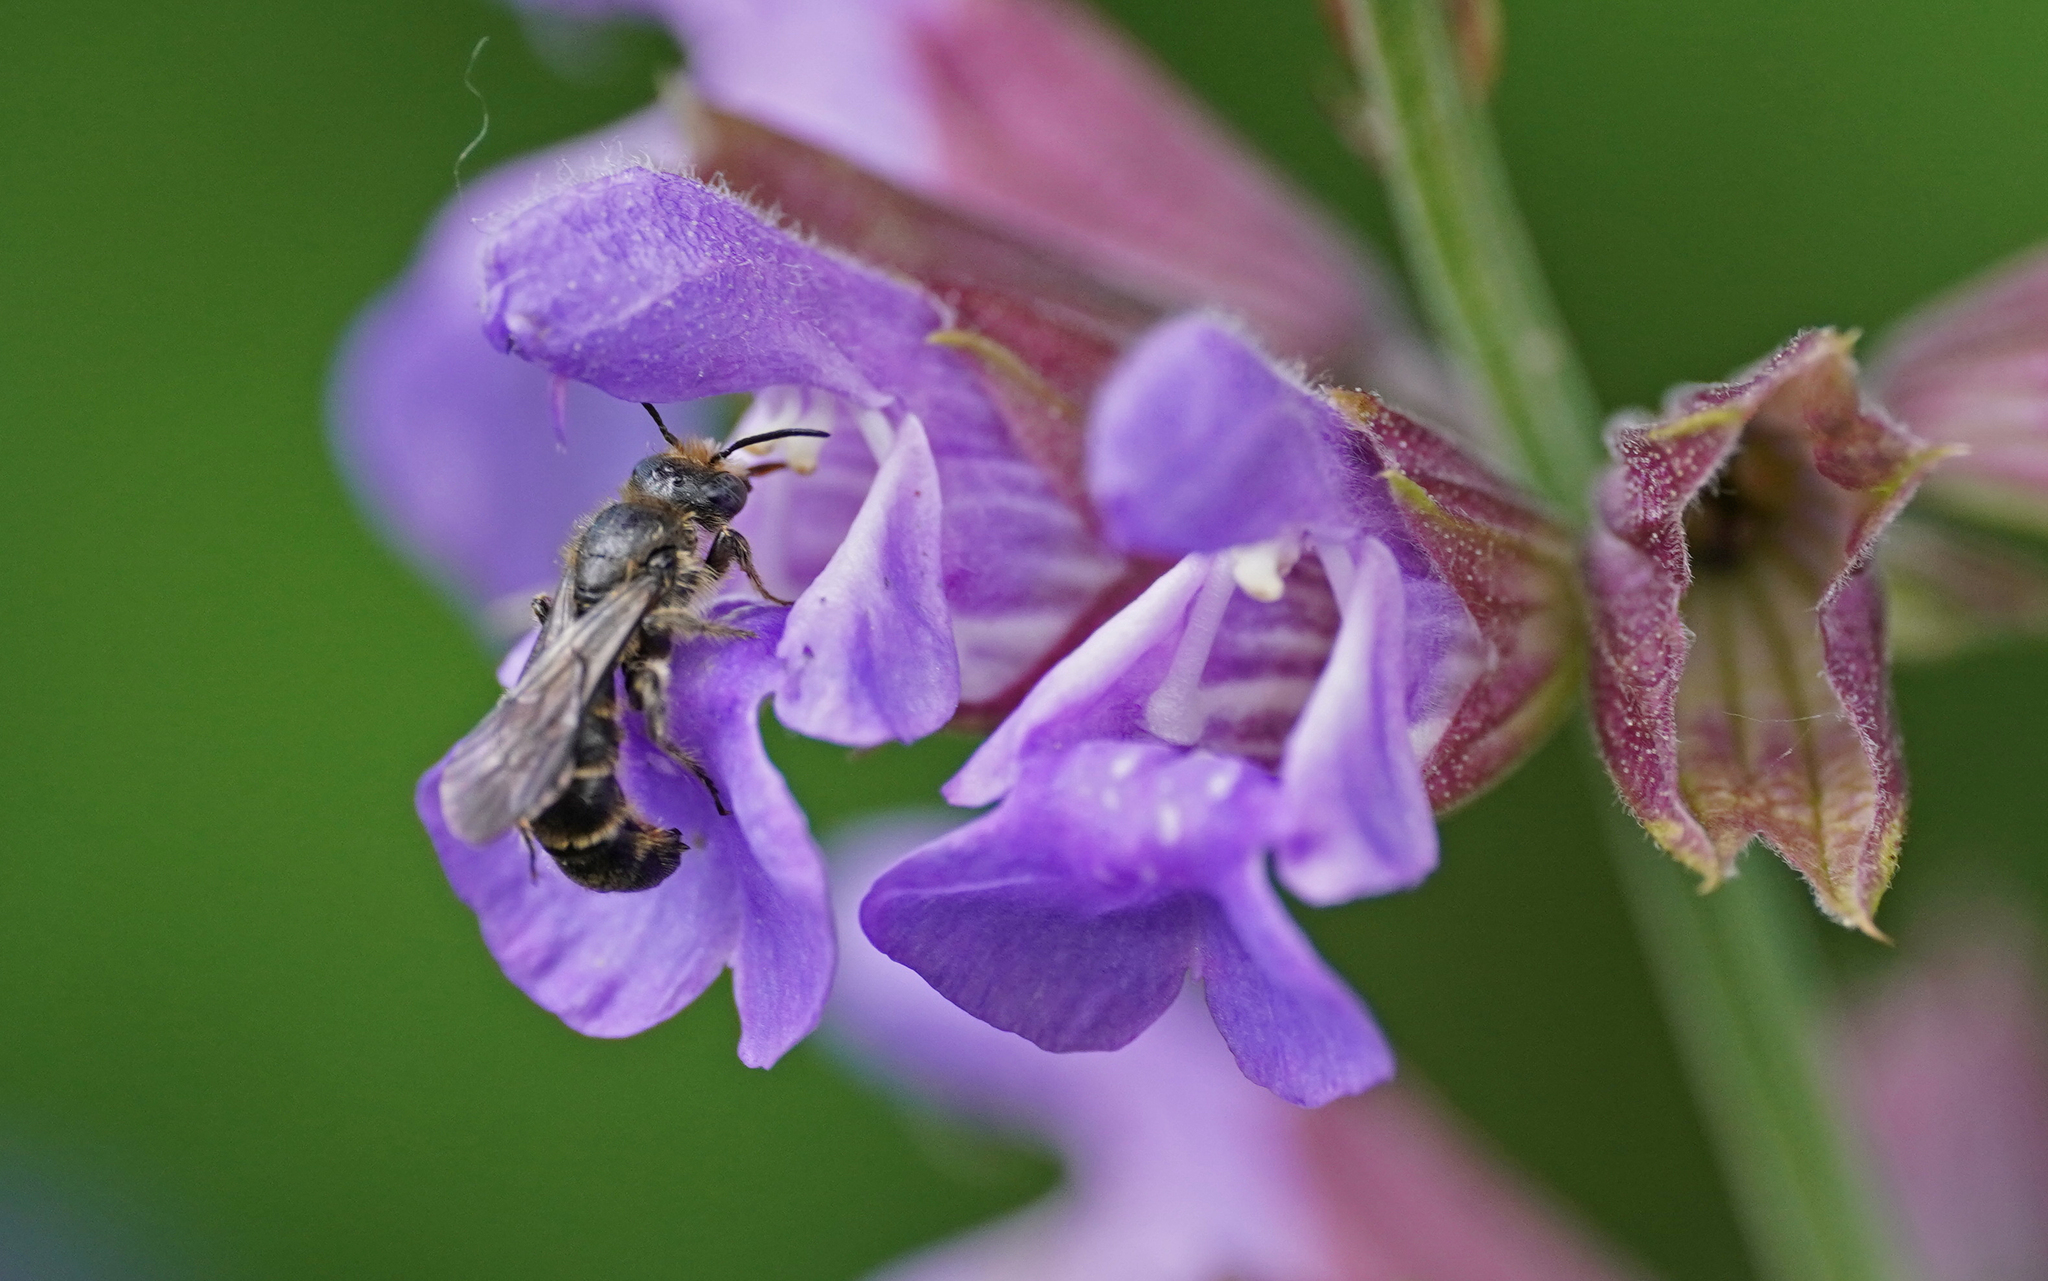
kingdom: Animalia
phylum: Arthropoda
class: Insecta
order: Hymenoptera
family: Megachilidae
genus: Chelostoma
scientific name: Chelostoma rapunculi
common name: Rampion scissor bee
